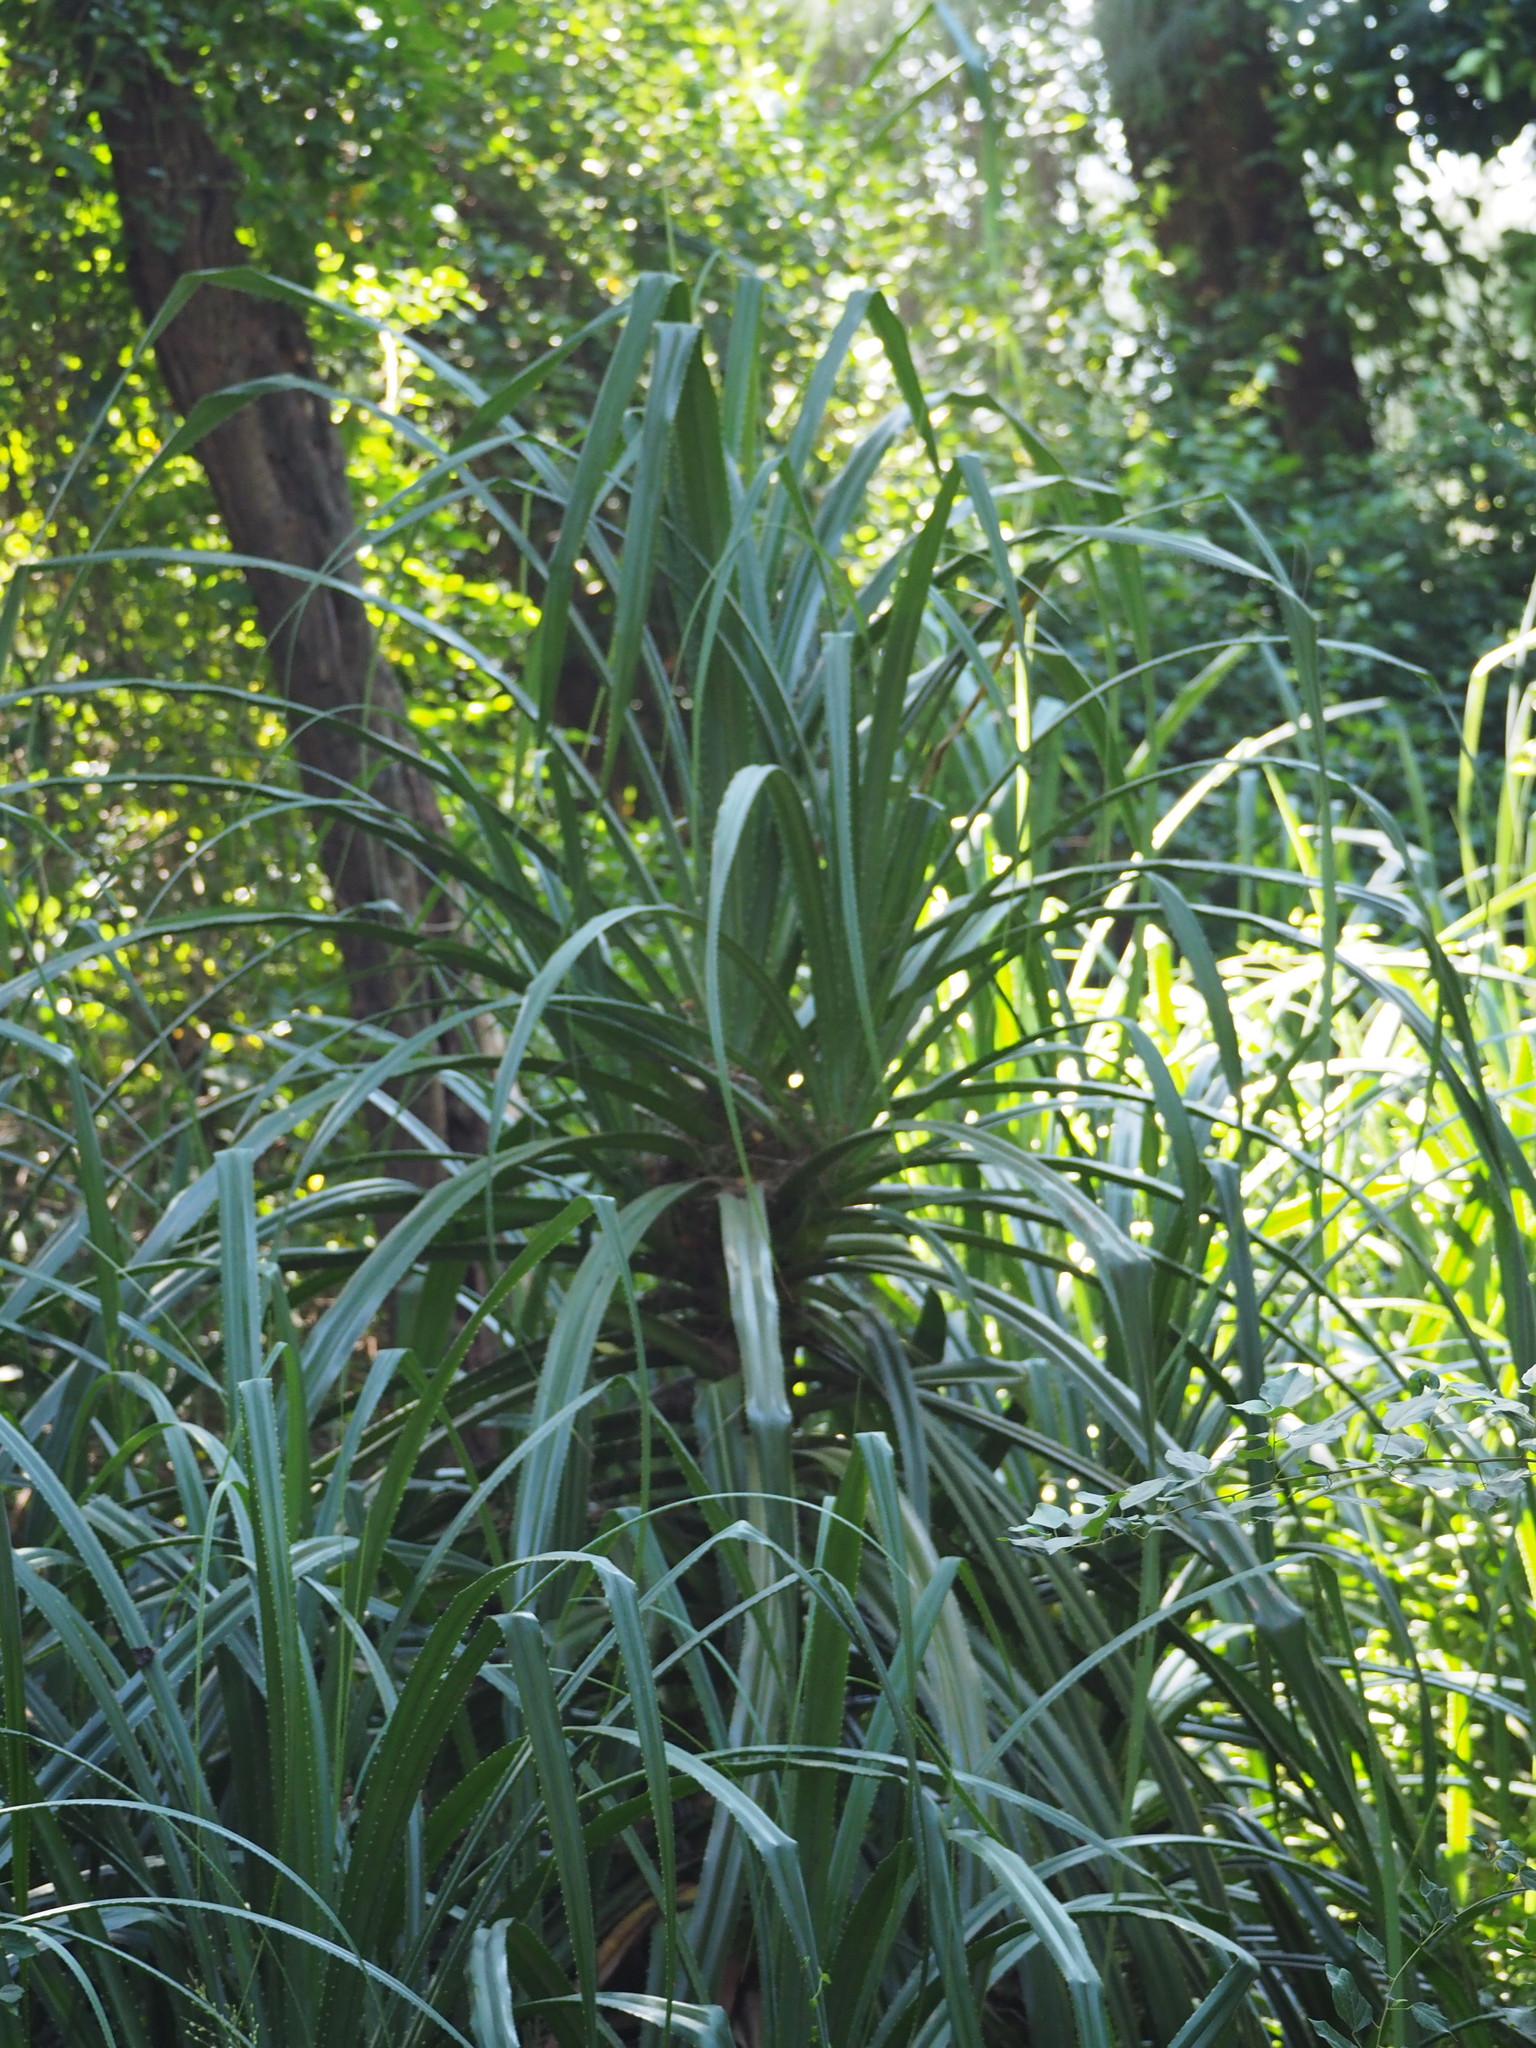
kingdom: Plantae
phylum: Tracheophyta
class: Liliopsida
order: Pandanales
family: Pandanaceae
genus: Pandanus
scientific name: Pandanus odorifer
